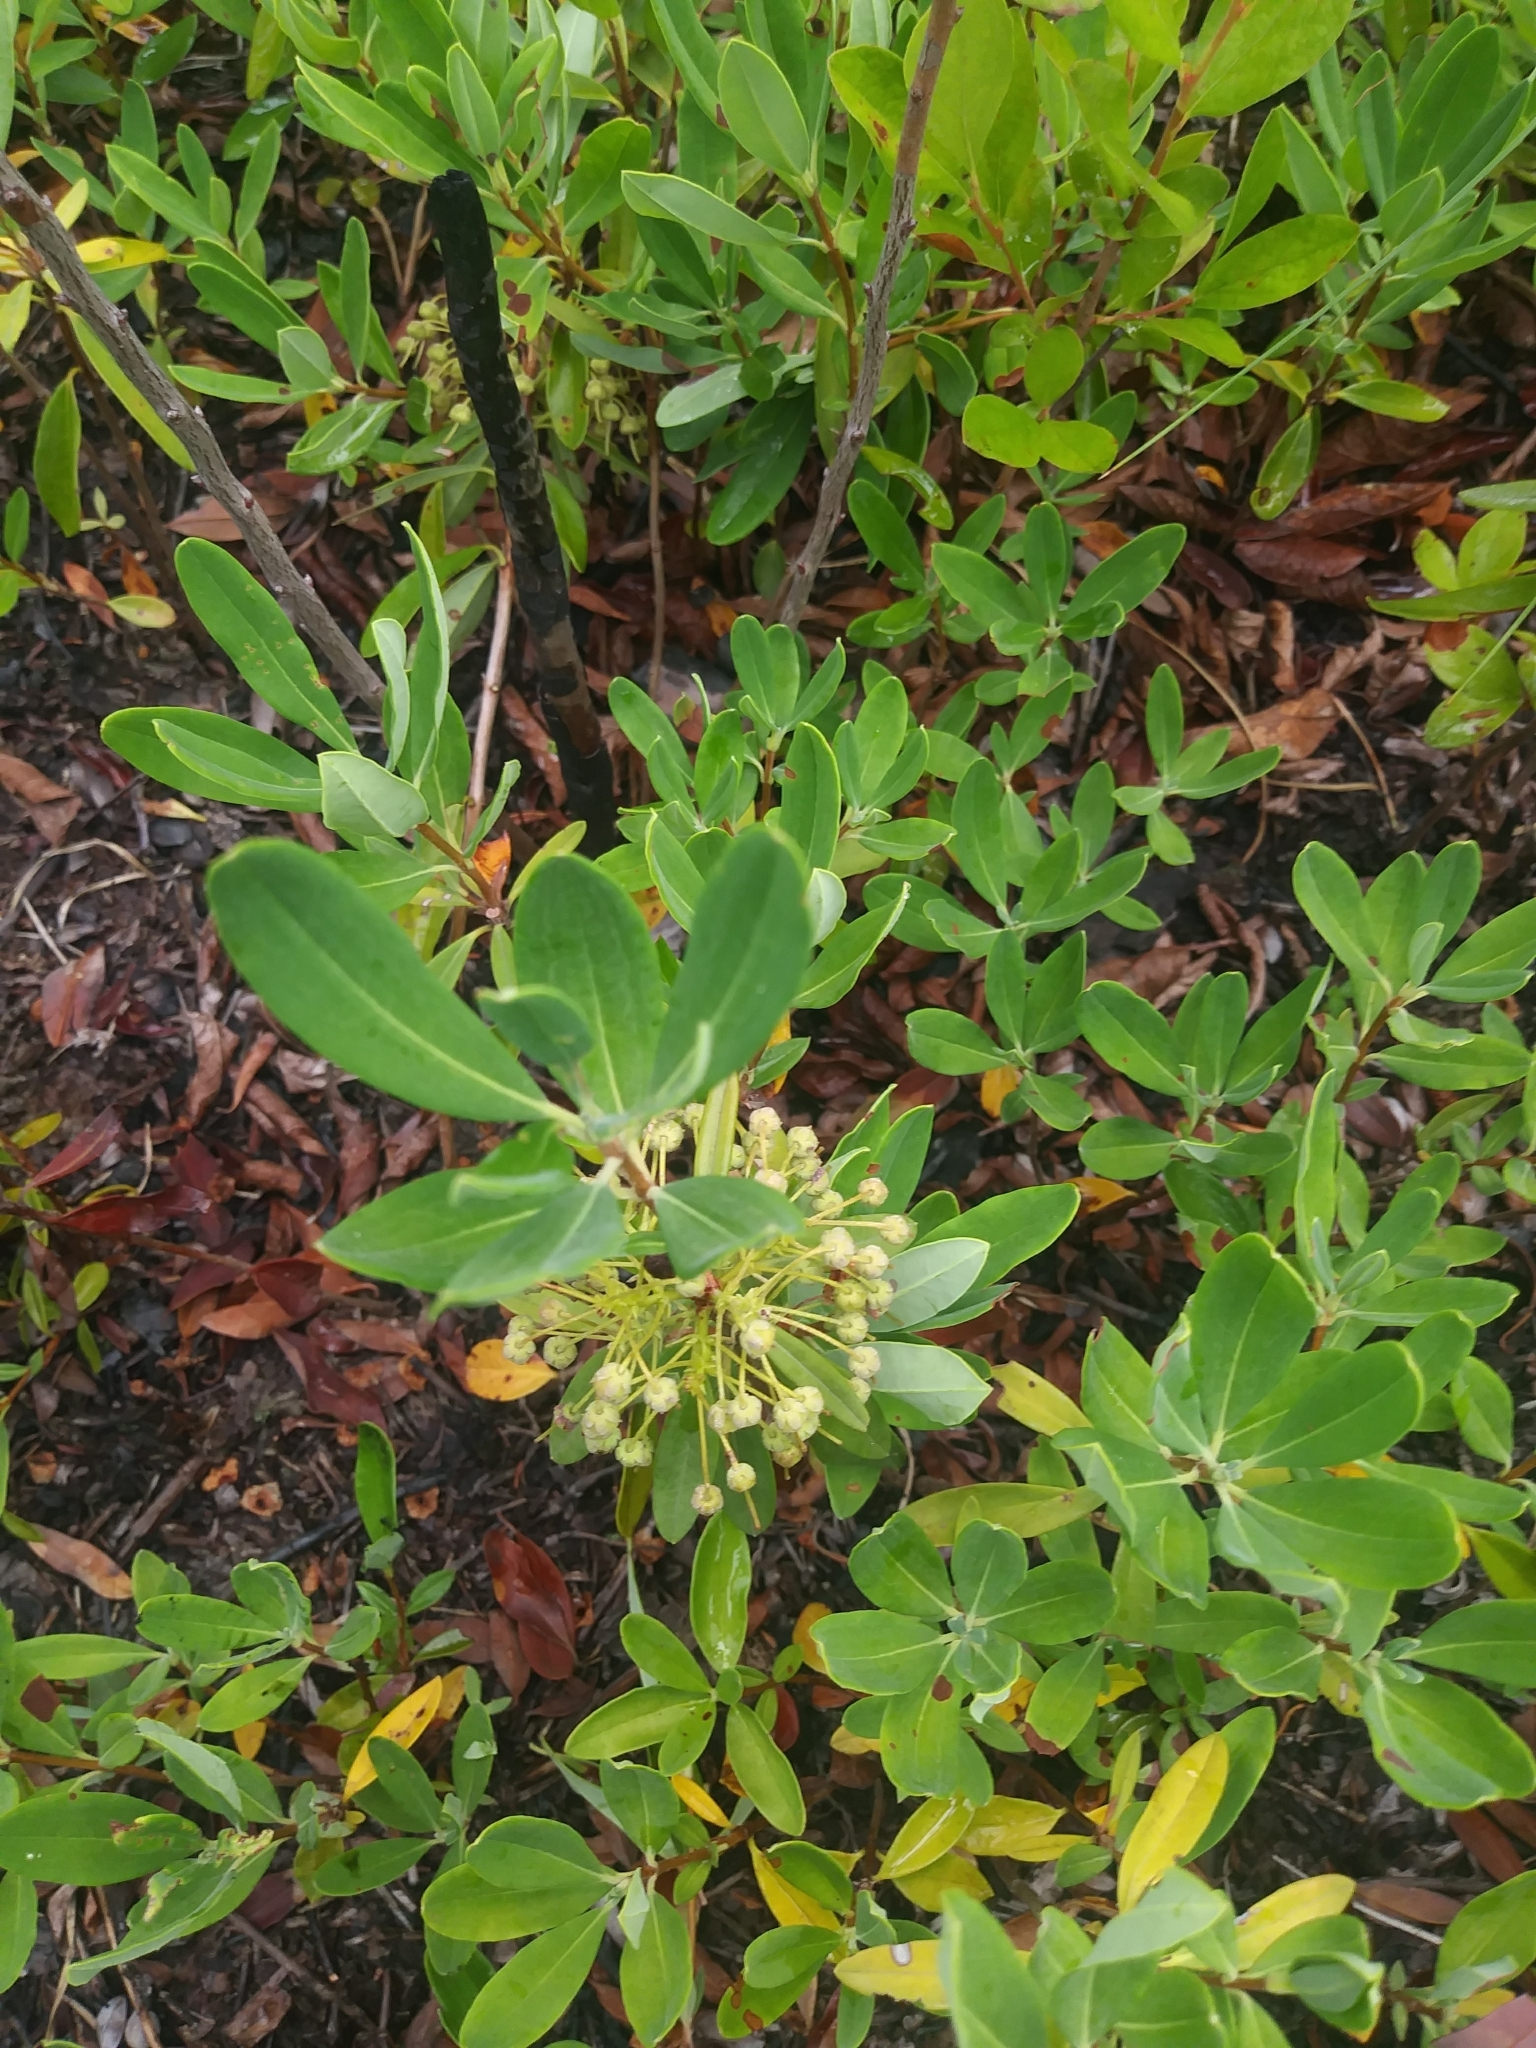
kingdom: Plantae
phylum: Tracheophyta
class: Magnoliopsida
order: Ericales
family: Ericaceae
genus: Kalmia
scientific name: Kalmia angustifolia
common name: Sheep-laurel
